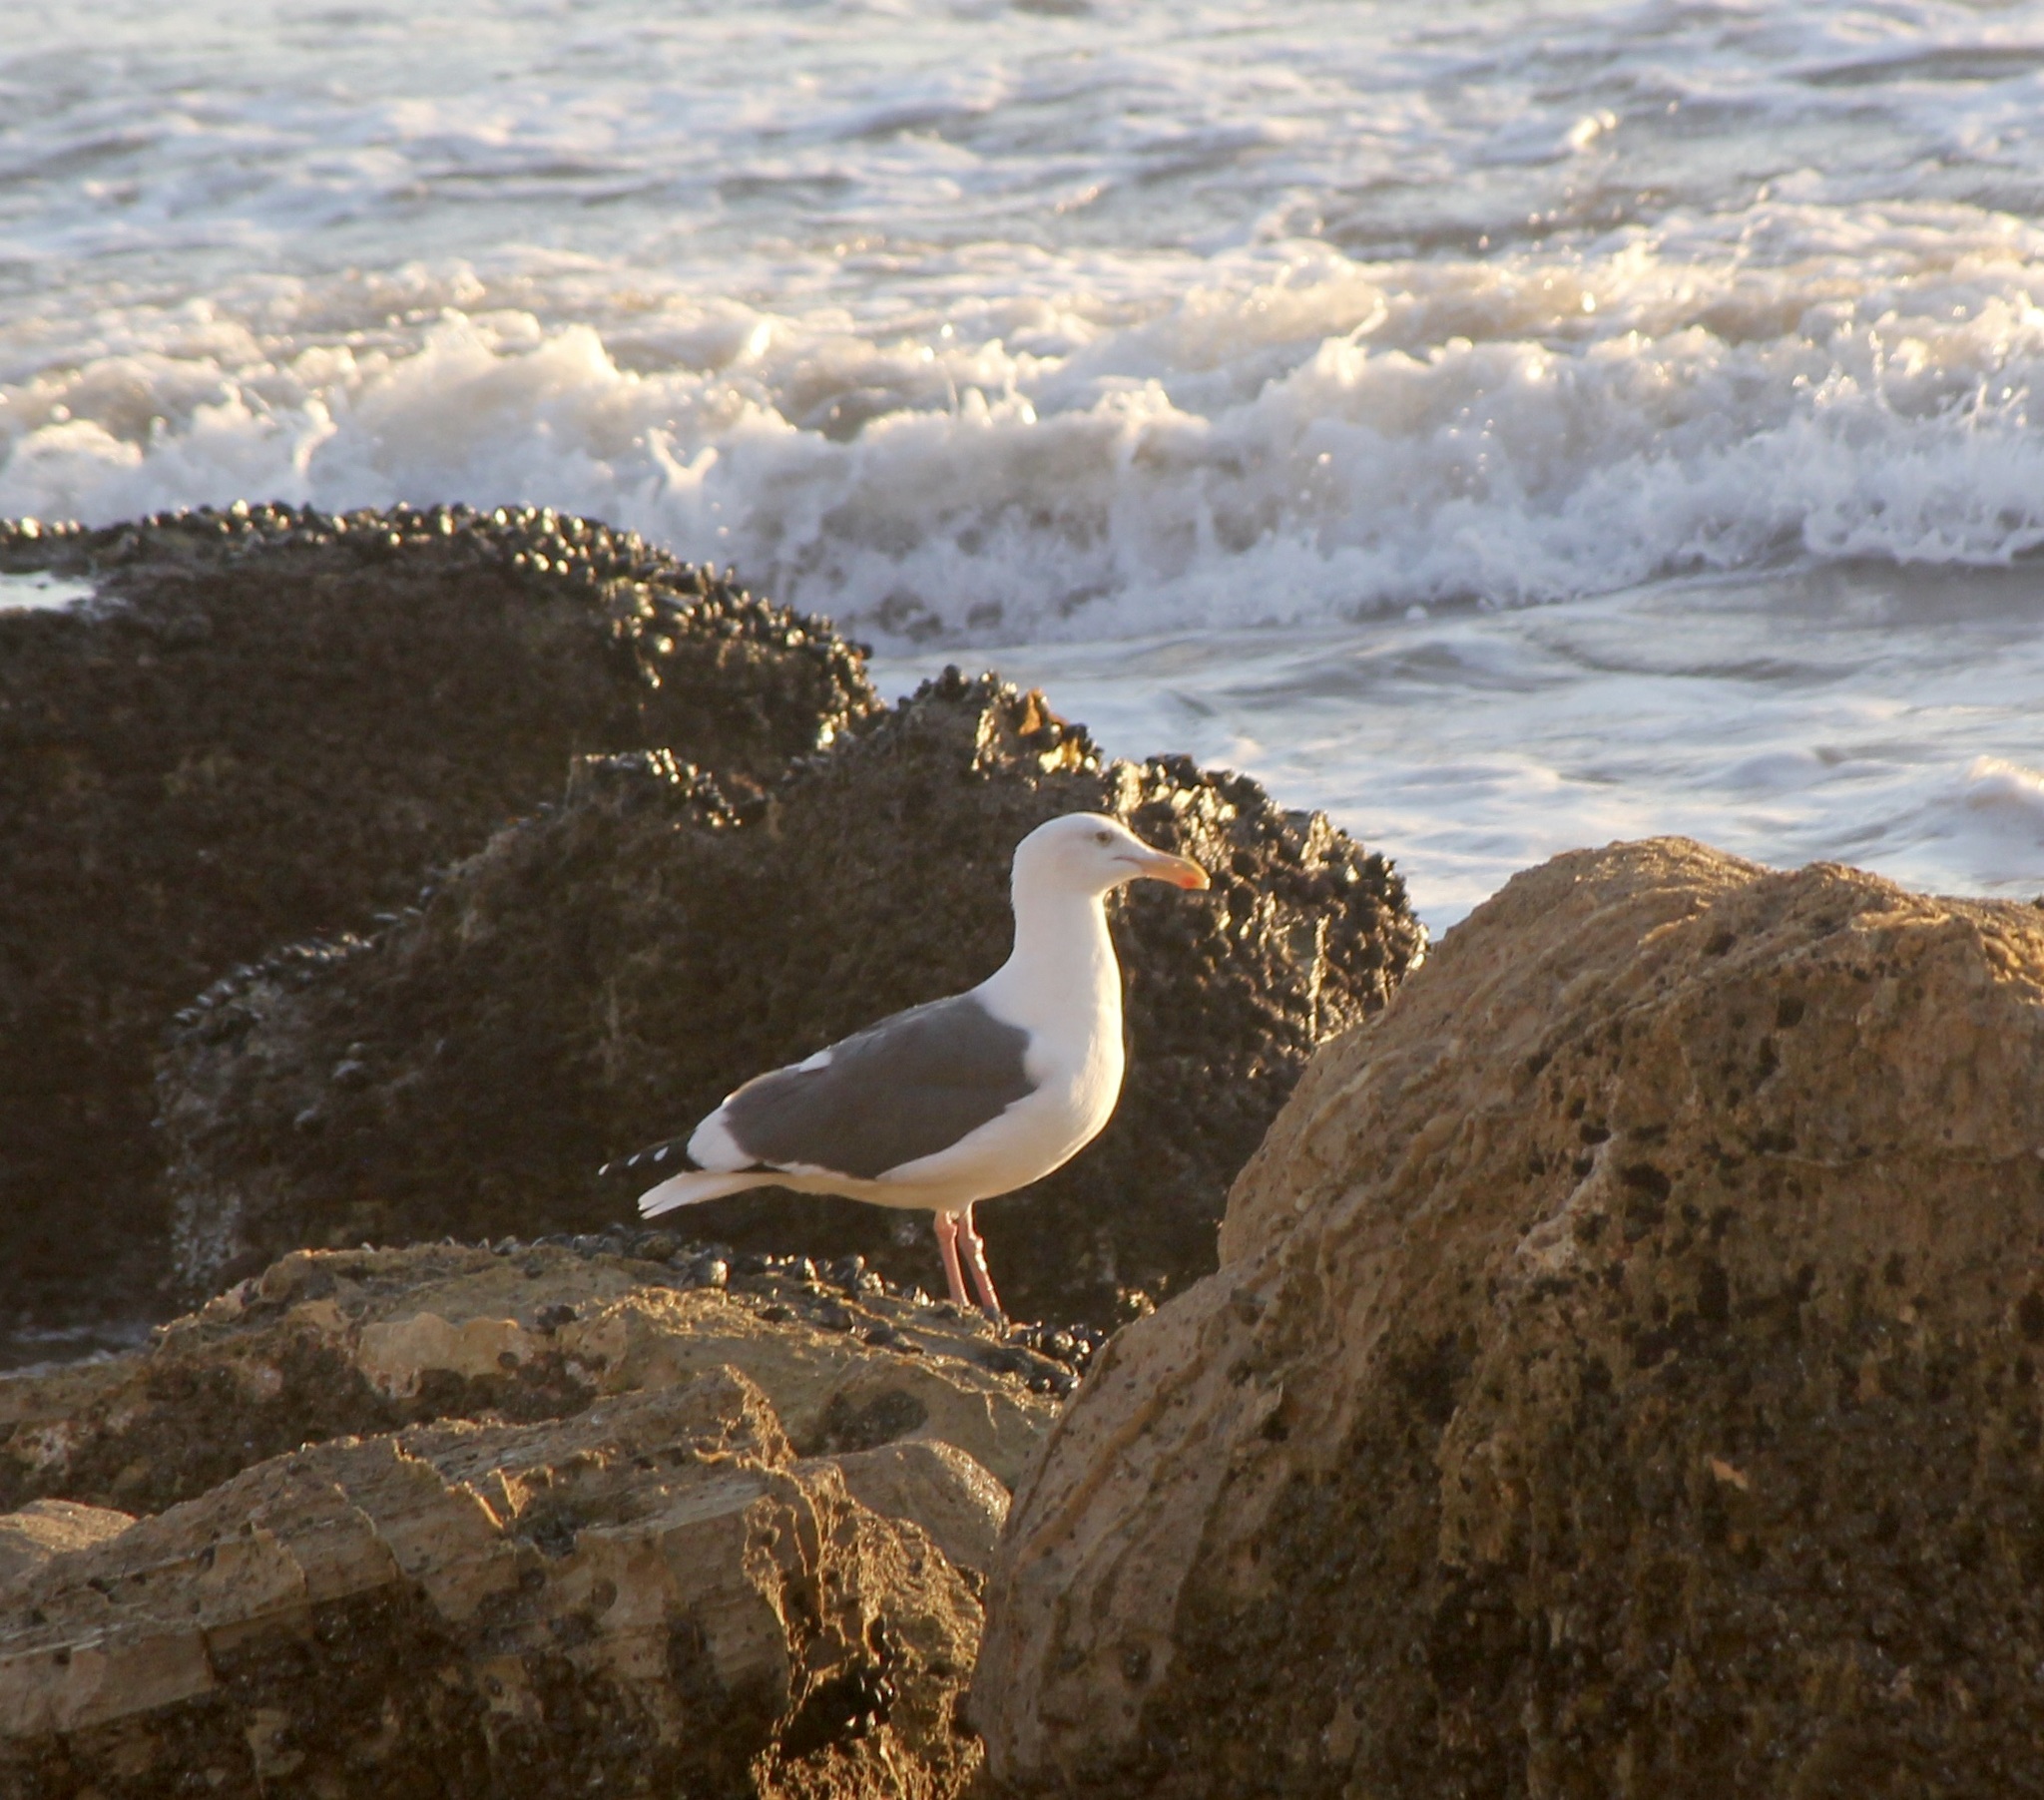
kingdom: Animalia
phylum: Chordata
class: Aves
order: Charadriiformes
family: Laridae
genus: Larus
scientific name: Larus occidentalis
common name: Western gull
